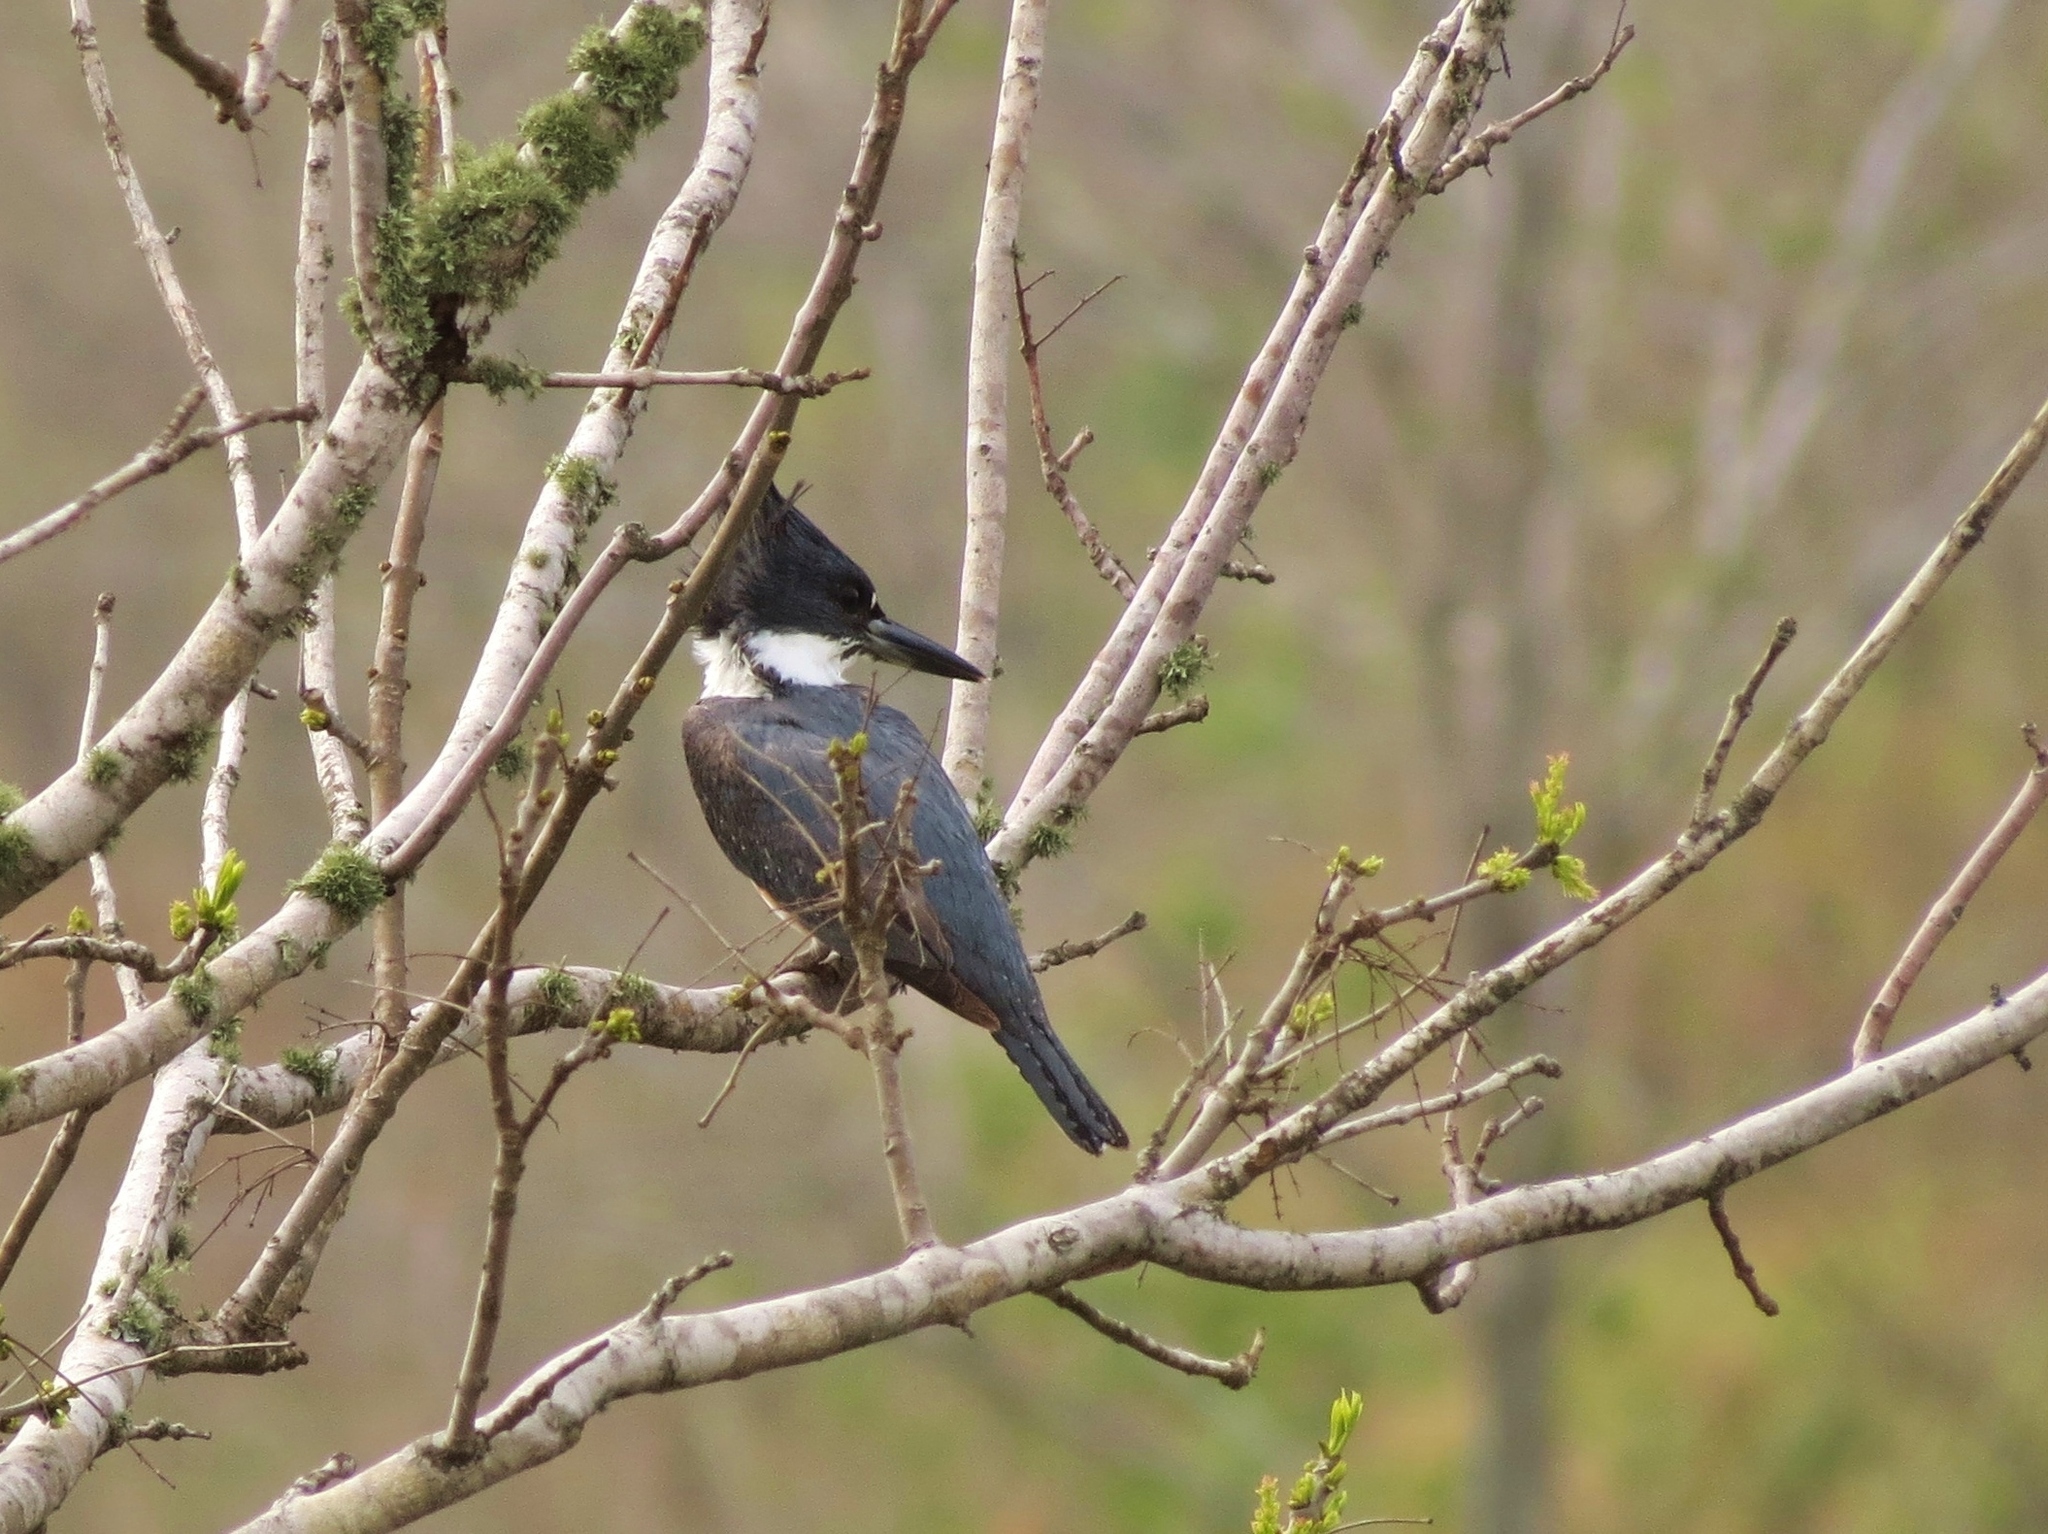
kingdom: Animalia
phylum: Chordata
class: Aves
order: Coraciiformes
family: Alcedinidae
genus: Megaceryle
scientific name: Megaceryle alcyon
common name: Belted kingfisher
